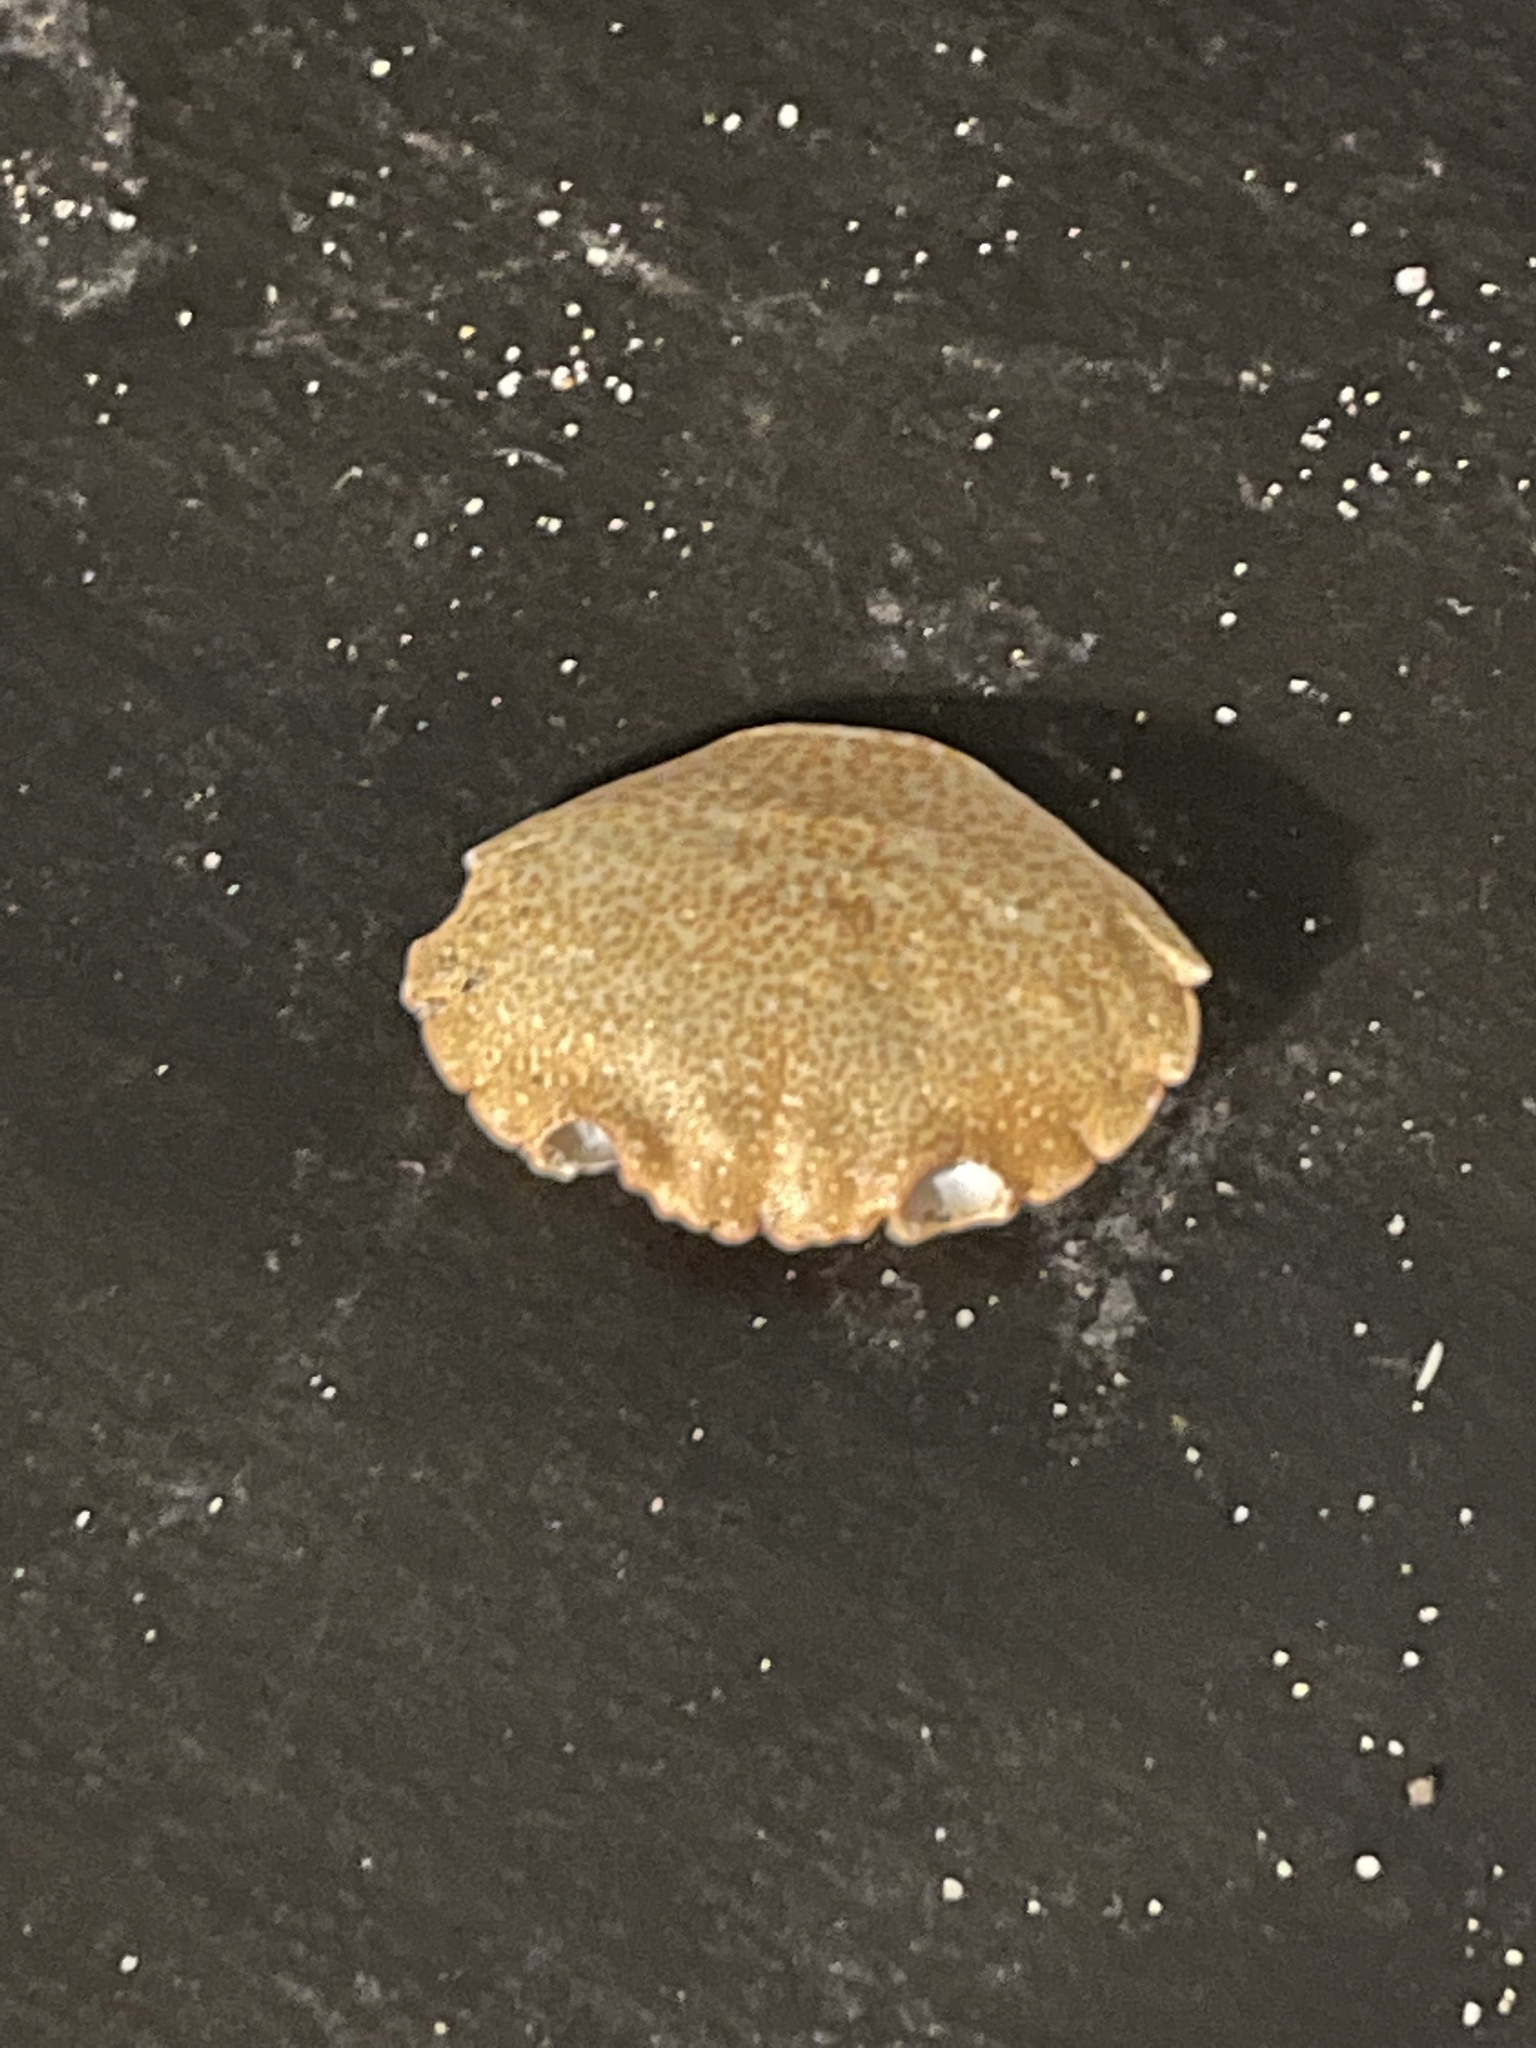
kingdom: Animalia
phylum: Arthropoda
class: Malacostraca
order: Decapoda
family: Menippidae
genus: Menippe
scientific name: Menippe adina
